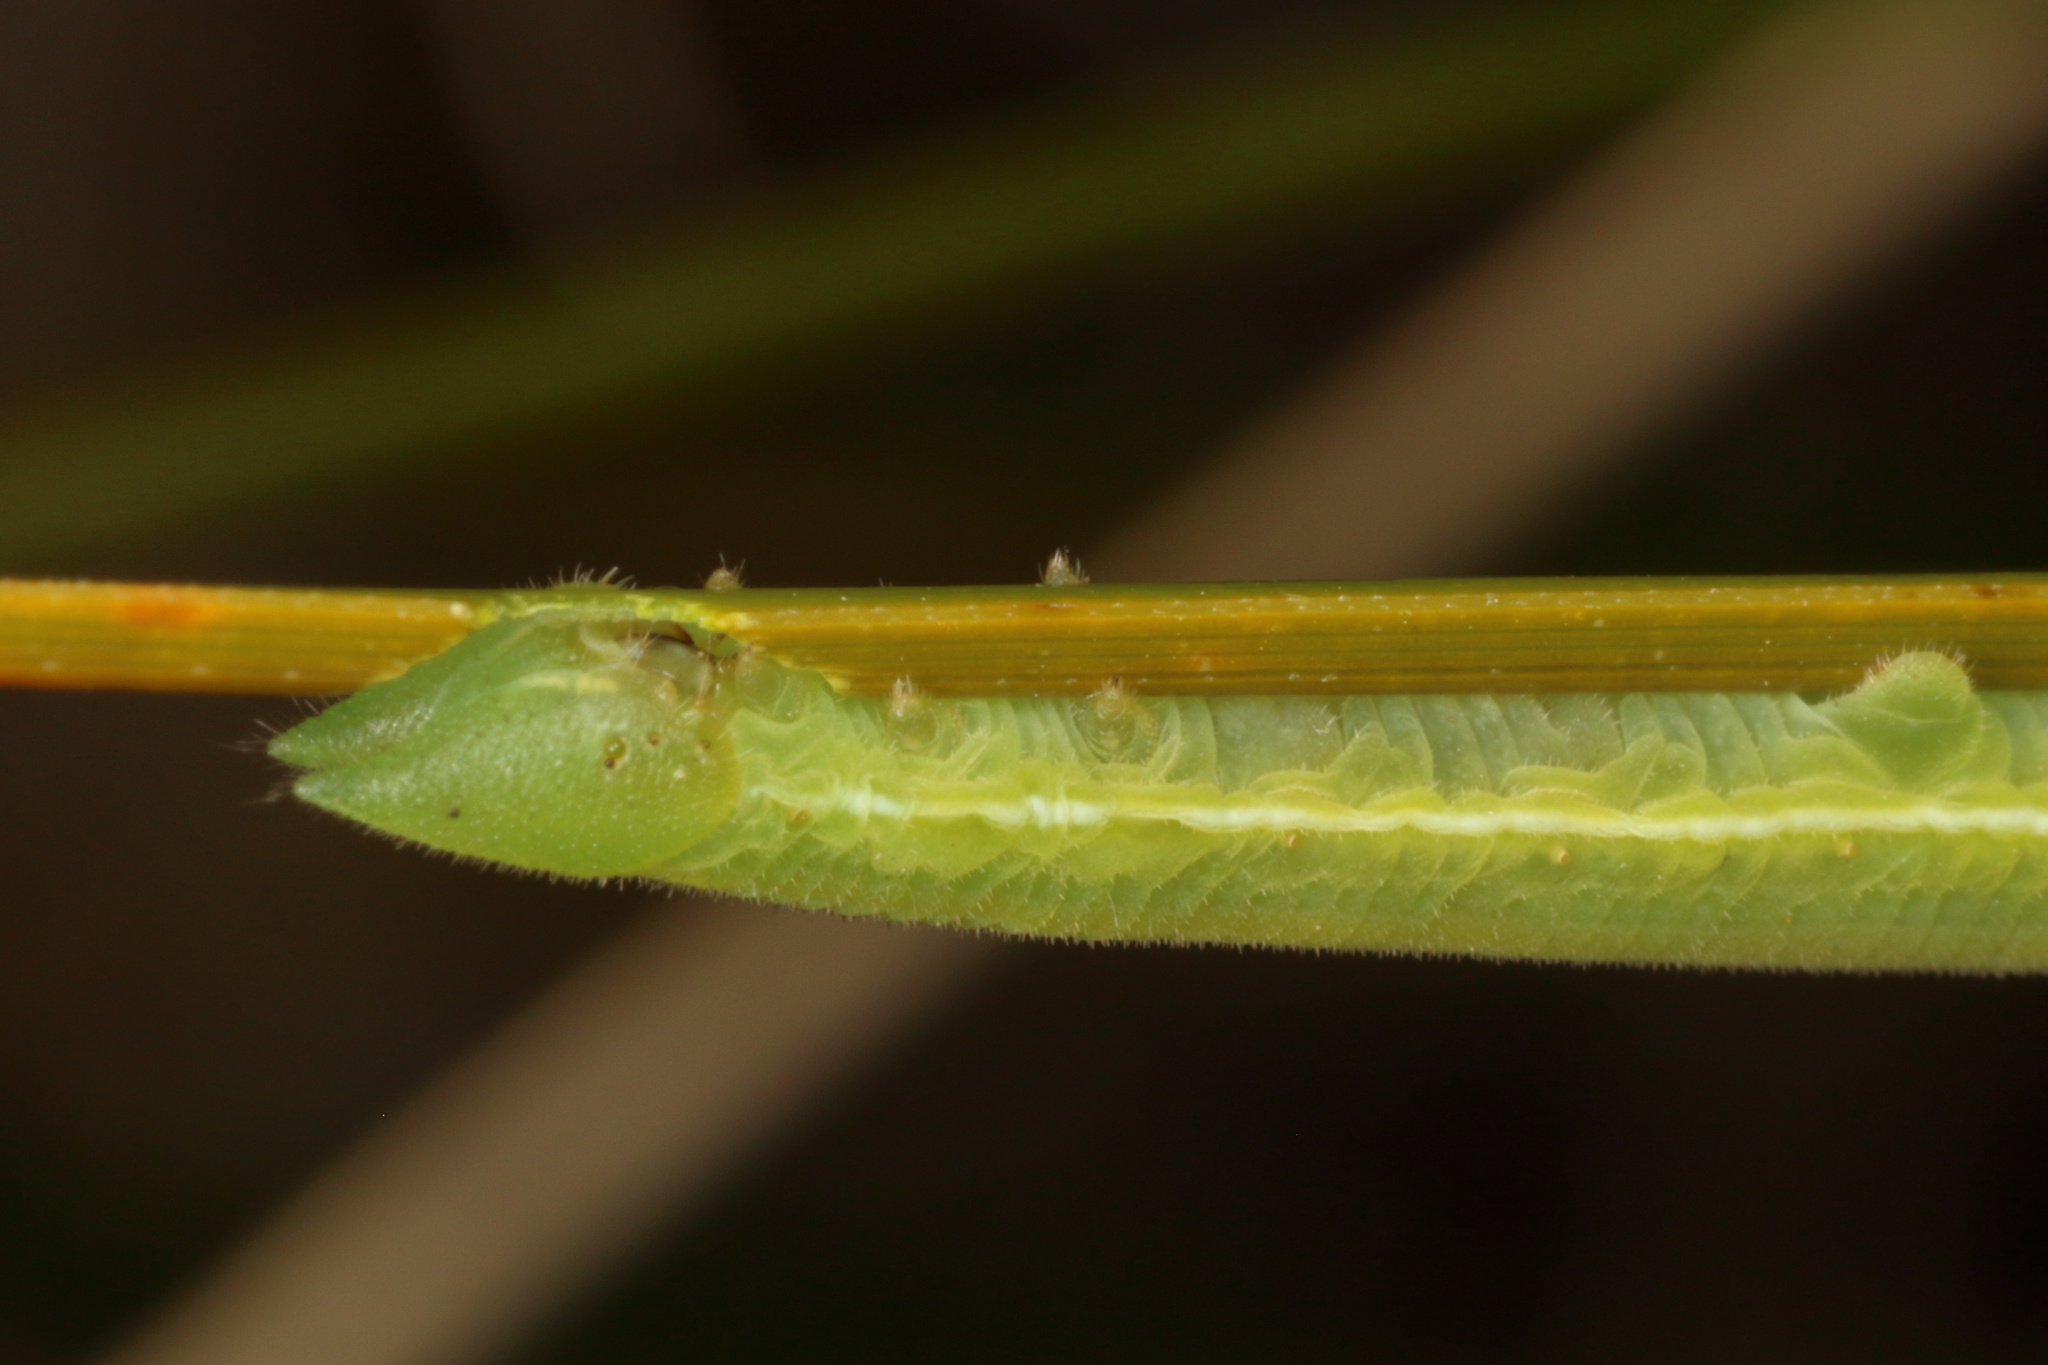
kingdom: Animalia
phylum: Arthropoda
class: Insecta
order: Lepidoptera
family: Nymphalidae
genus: Argyrophenga
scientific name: Argyrophenga janitae
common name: Janita's tussock
